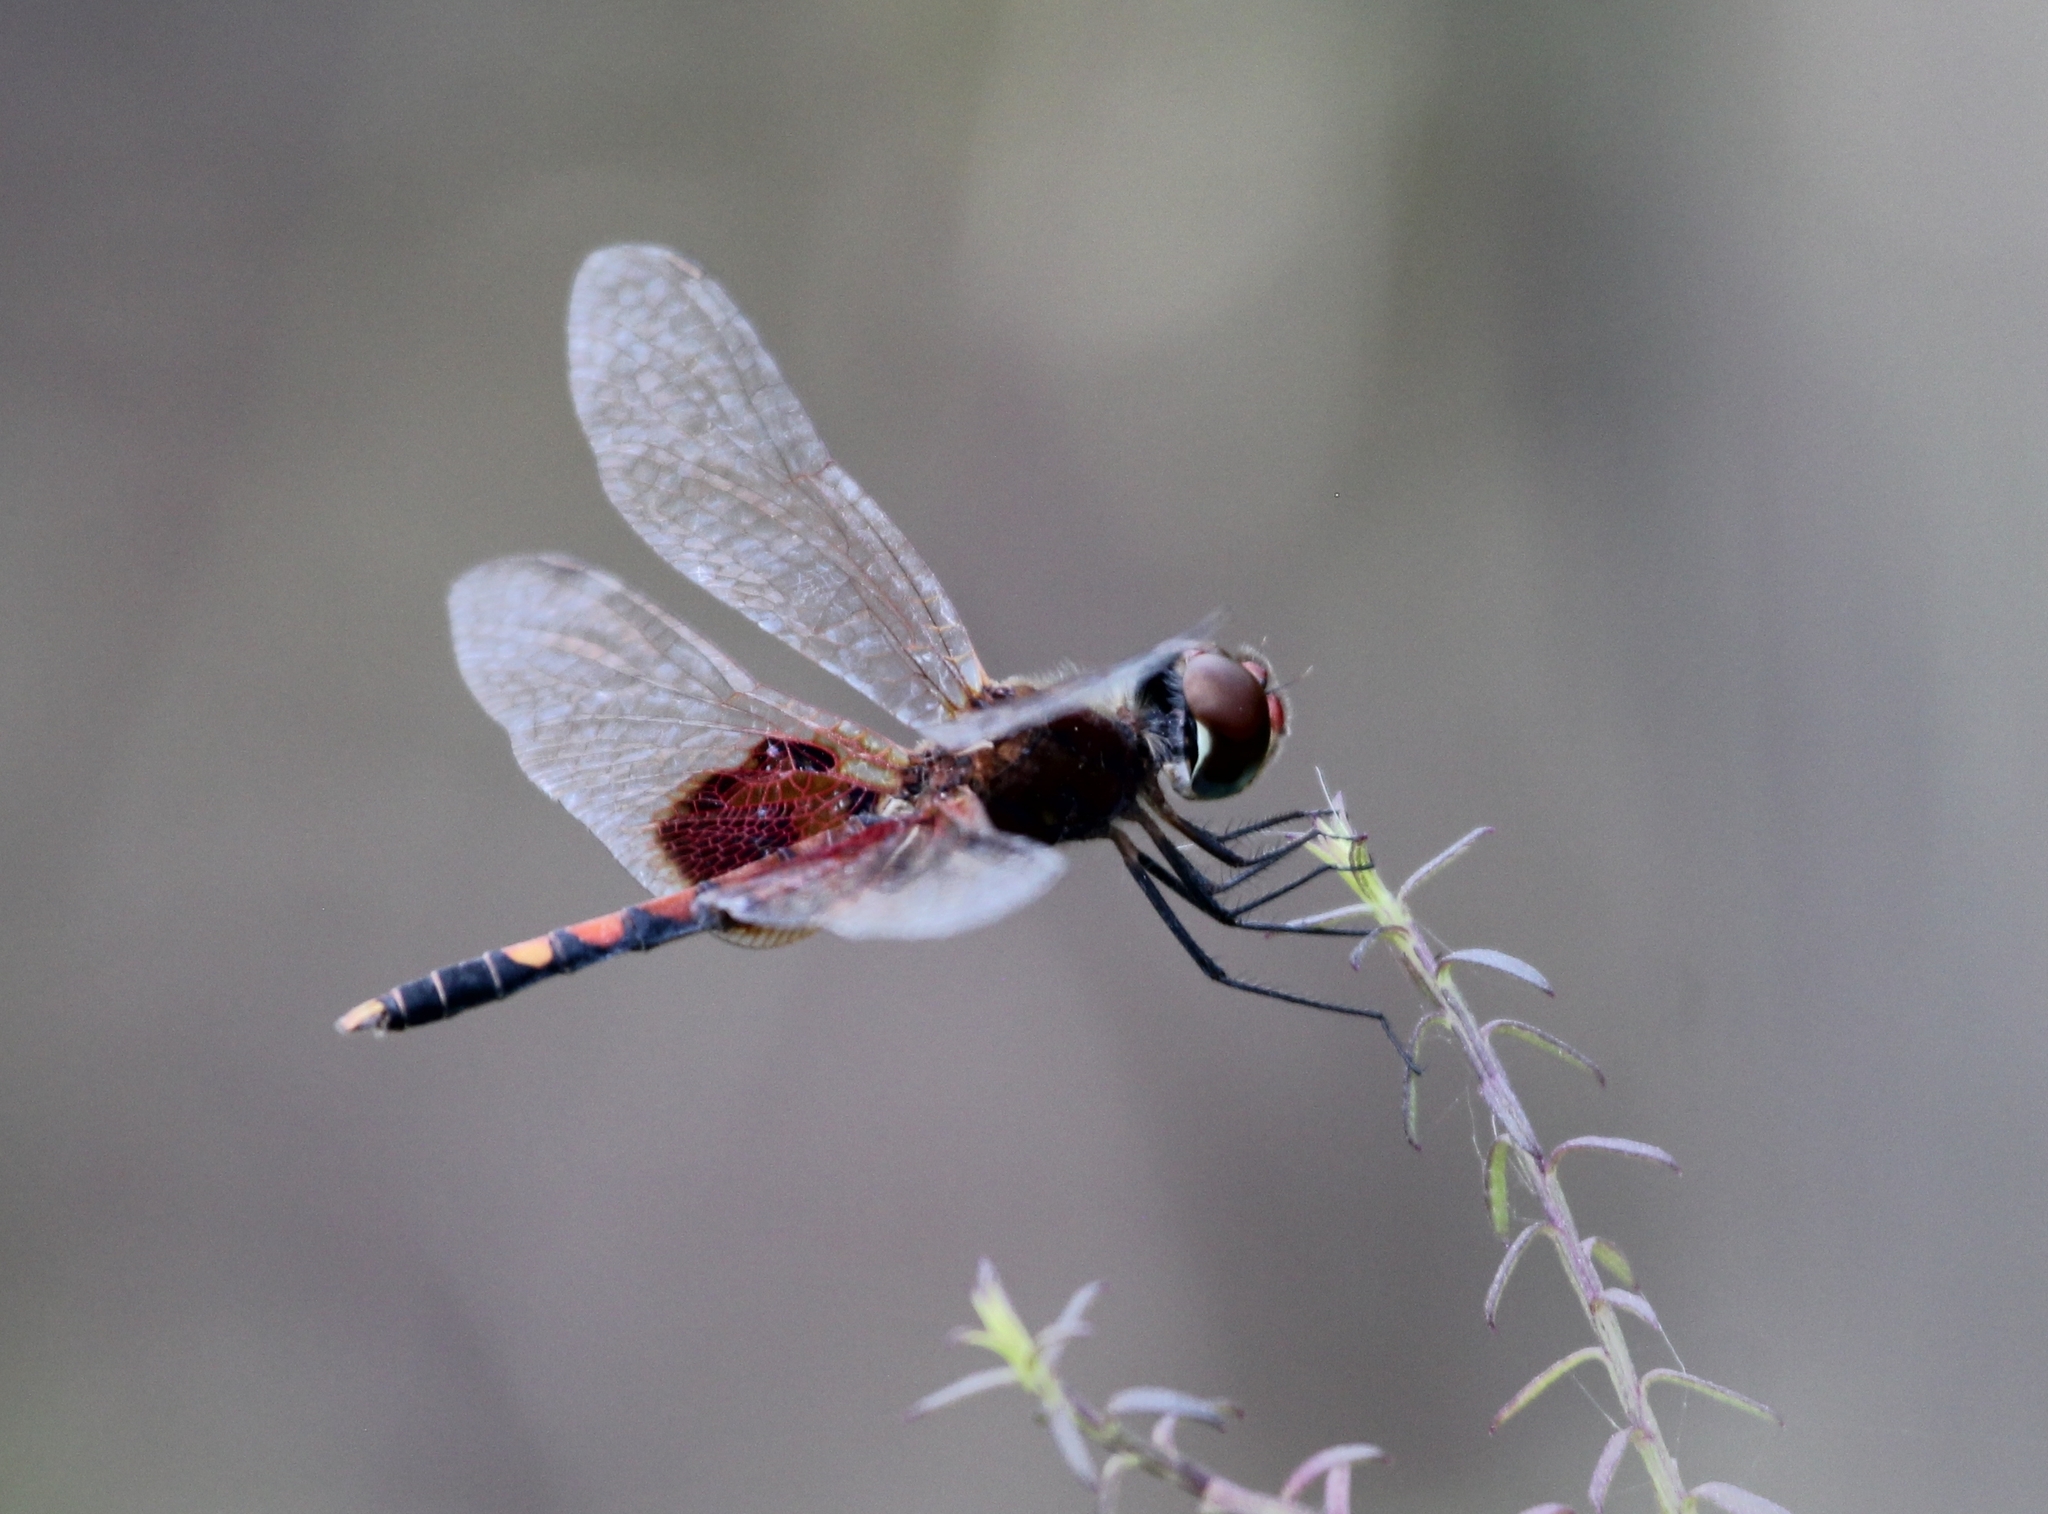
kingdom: Animalia
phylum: Arthropoda
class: Insecta
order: Odonata
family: Libellulidae
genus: Celithemis
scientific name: Celithemis amanda
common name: Amanda's pennant
